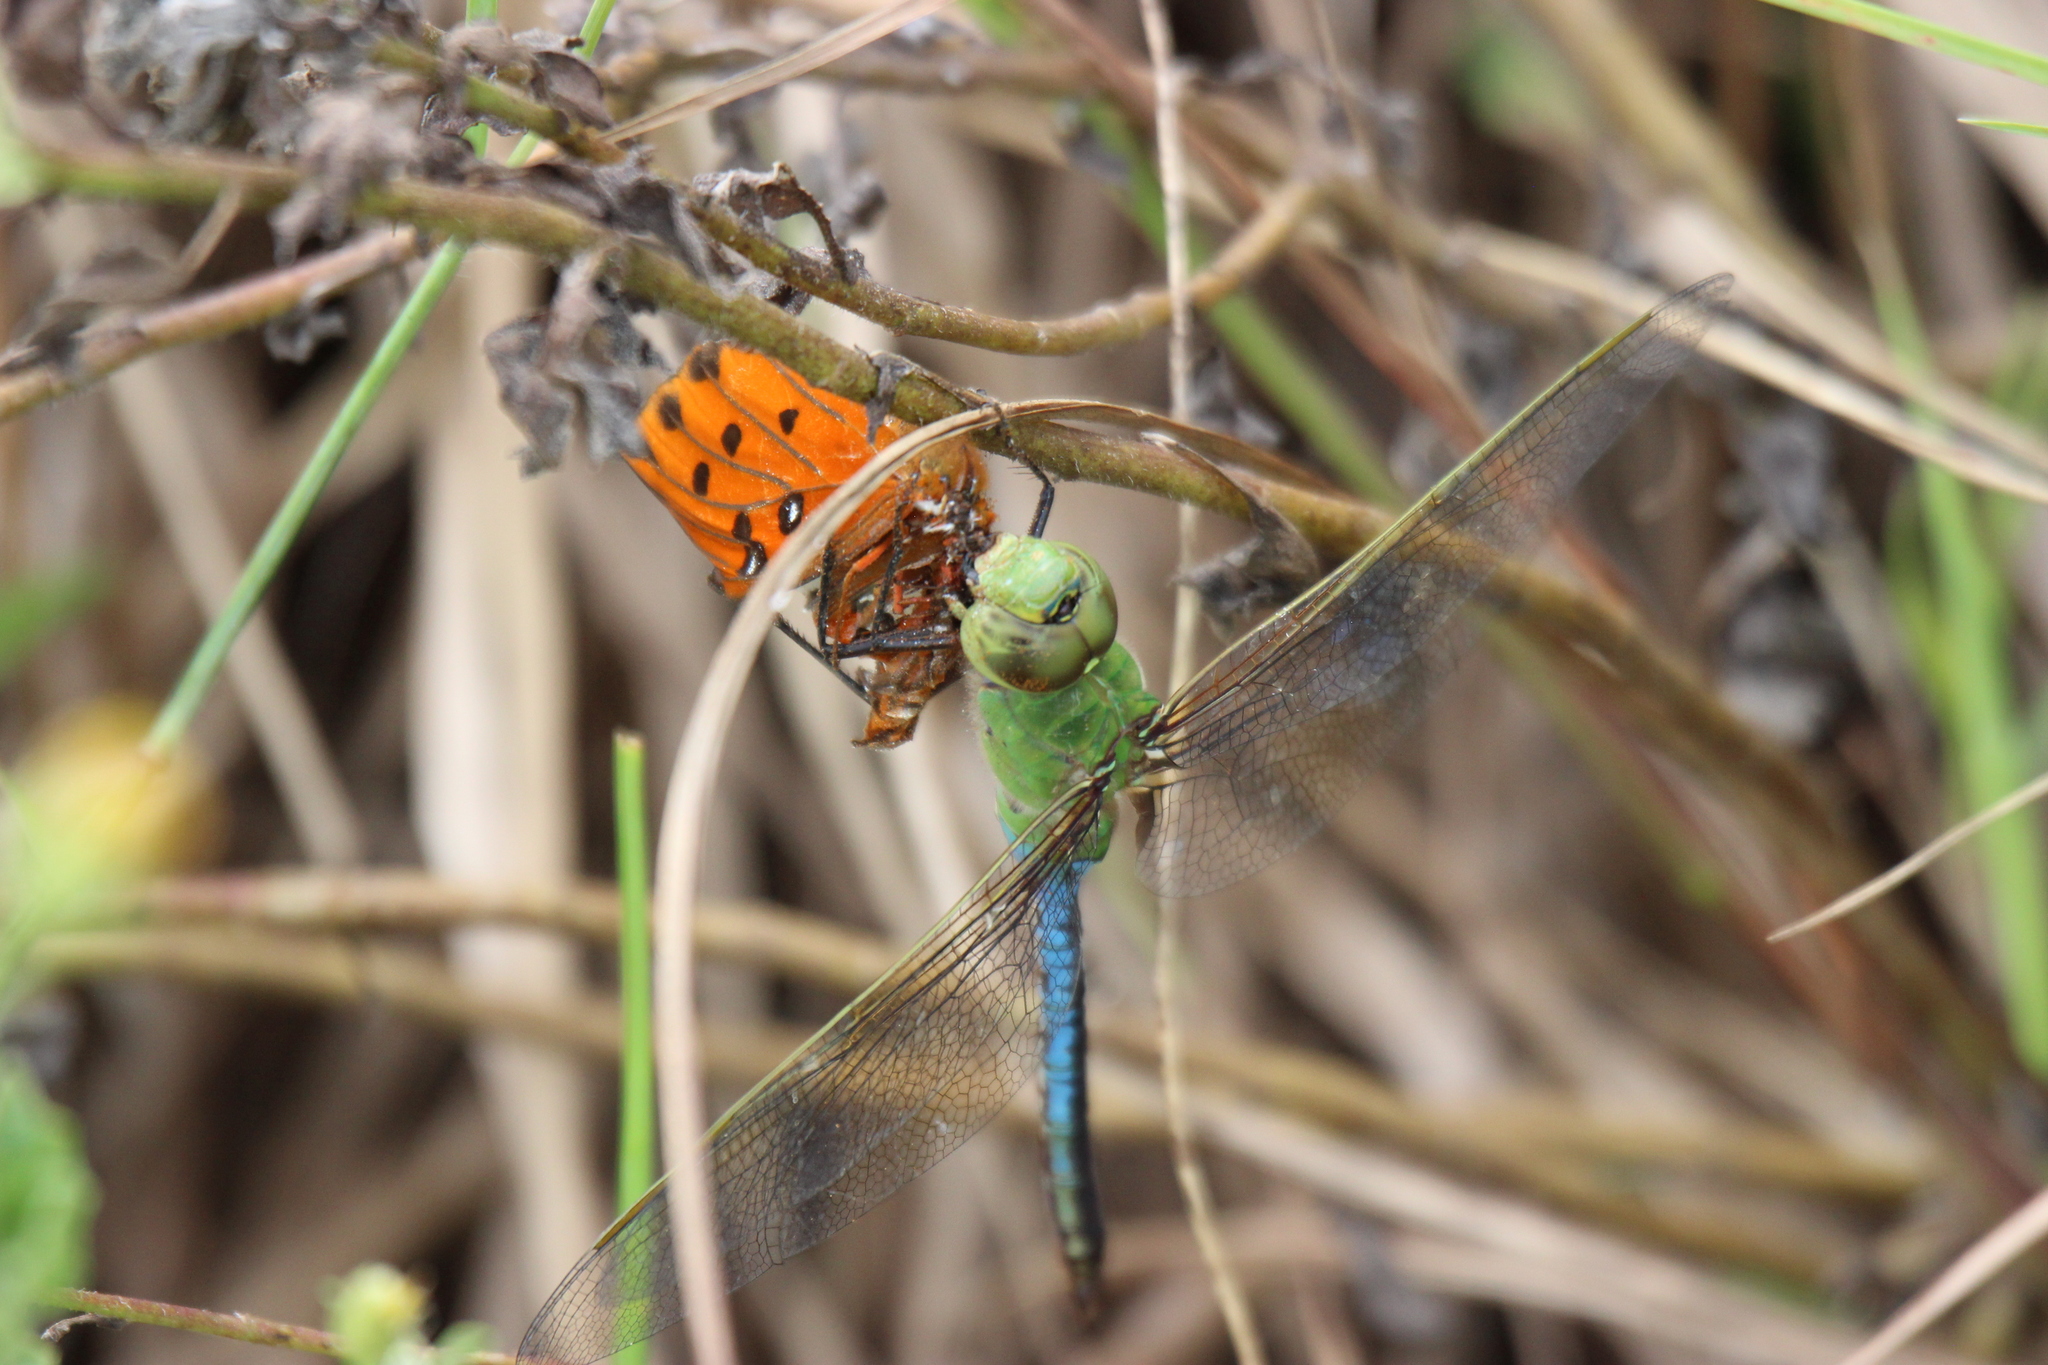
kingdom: Animalia
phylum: Arthropoda
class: Insecta
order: Odonata
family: Aeshnidae
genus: Anax
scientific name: Anax junius
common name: Common green darner
